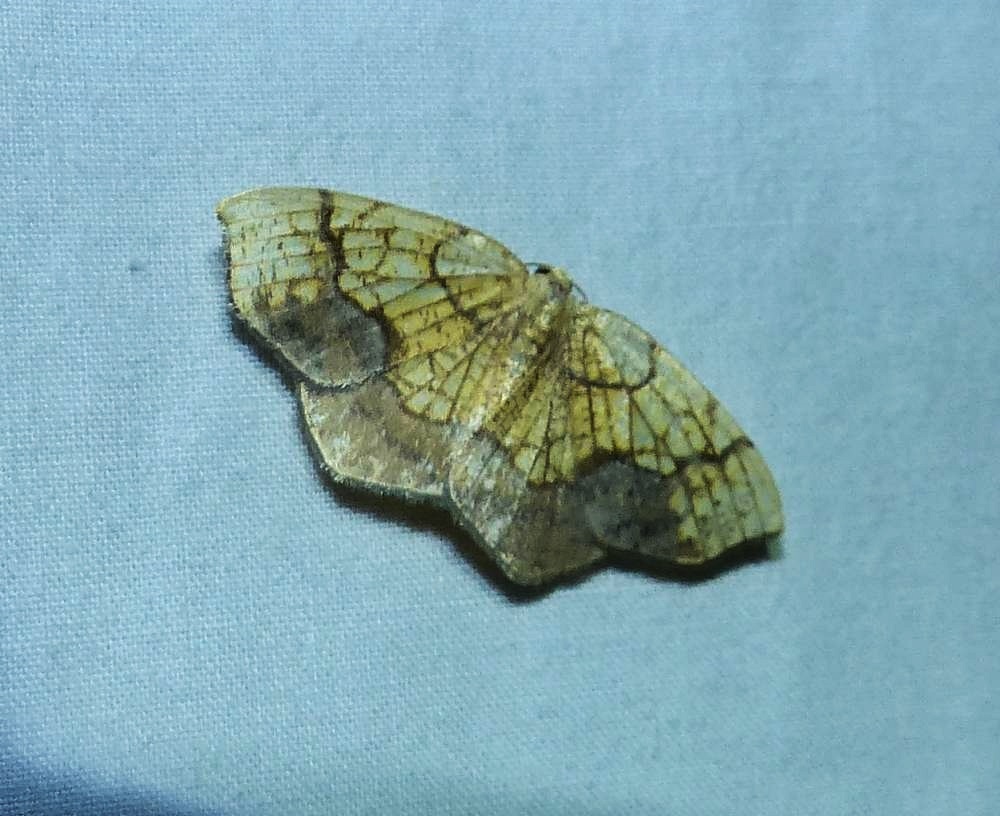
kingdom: Animalia
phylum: Arthropoda
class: Insecta
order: Lepidoptera
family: Geometridae
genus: Nematocampa
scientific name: Nematocampa resistaria
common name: Horned spanworm moth
